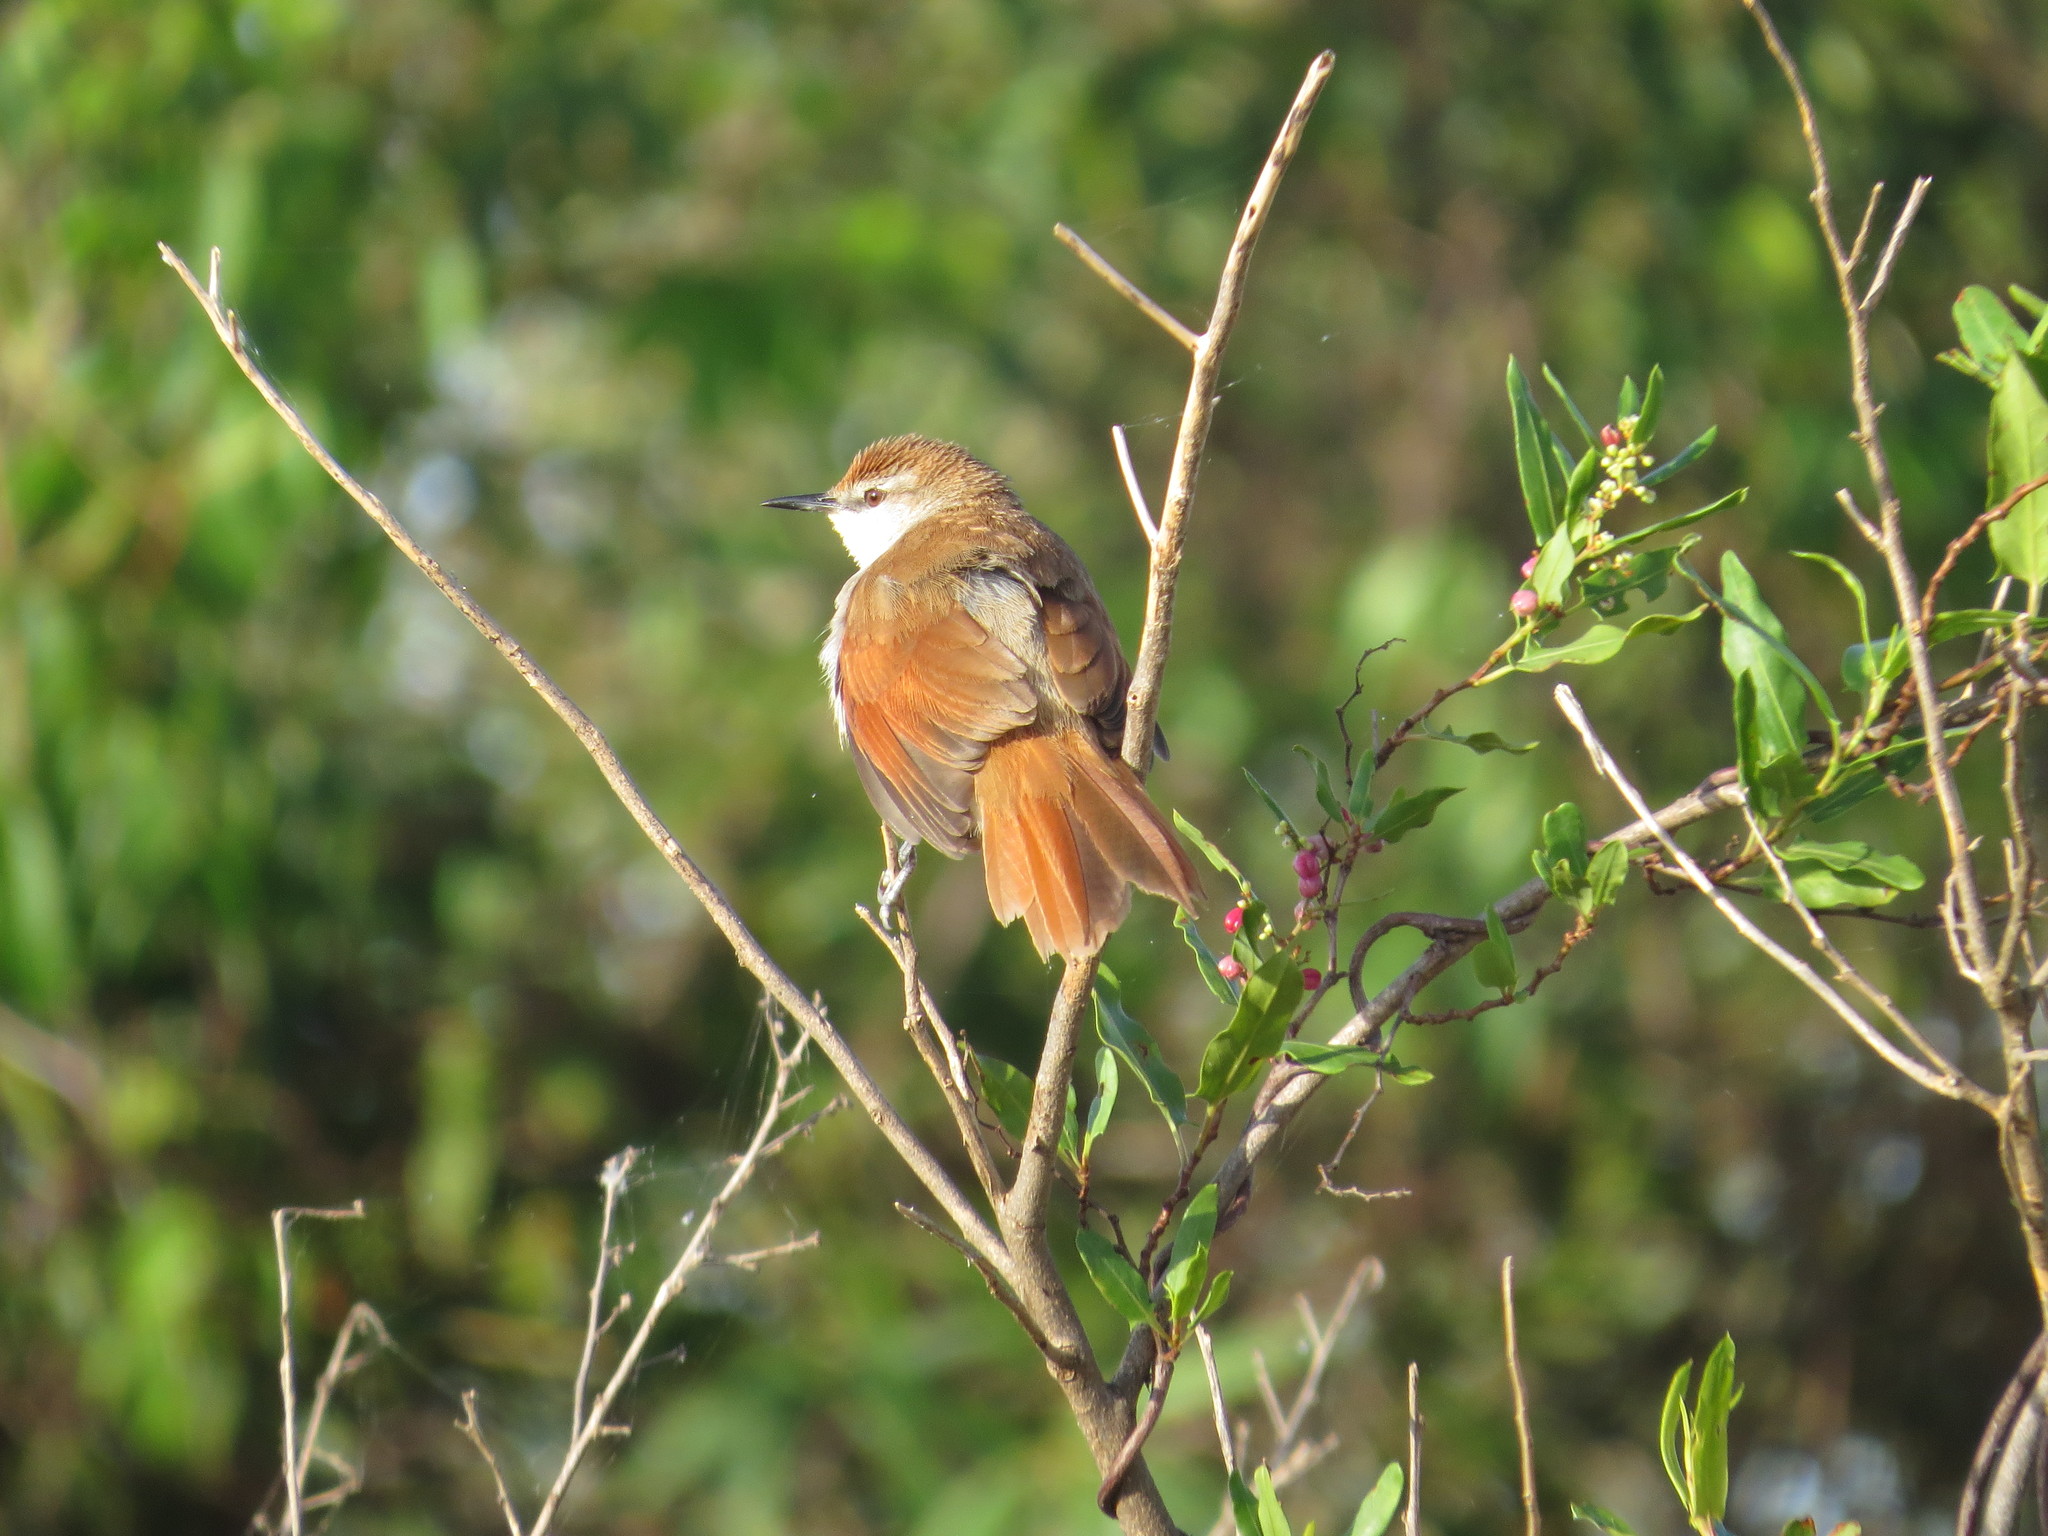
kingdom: Animalia
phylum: Chordata
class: Aves
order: Passeriformes
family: Furnariidae
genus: Certhiaxis
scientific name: Certhiaxis cinnamomeus
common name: Yellow-chinned spinetail
